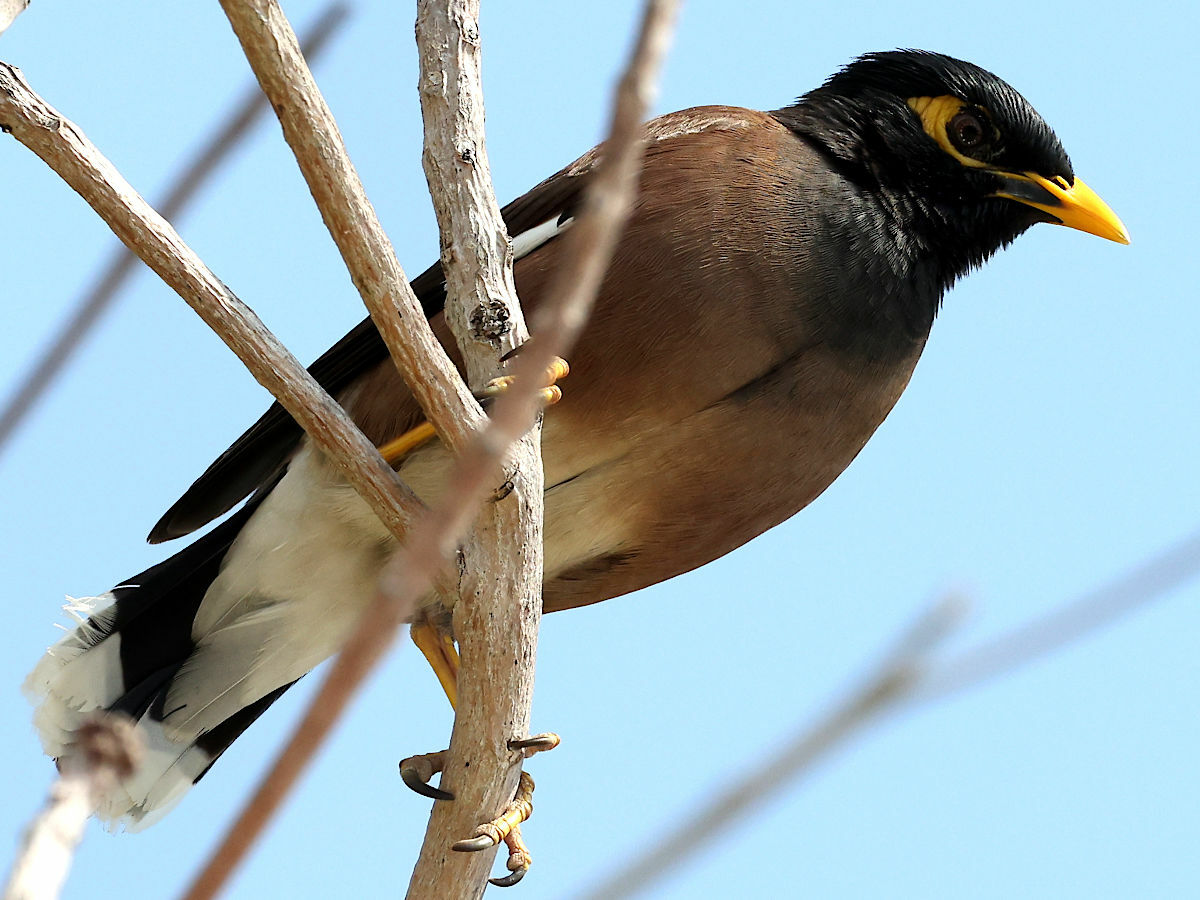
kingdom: Animalia
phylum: Chordata
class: Aves
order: Passeriformes
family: Sturnidae
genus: Acridotheres
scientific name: Acridotheres tristis
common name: Common myna
